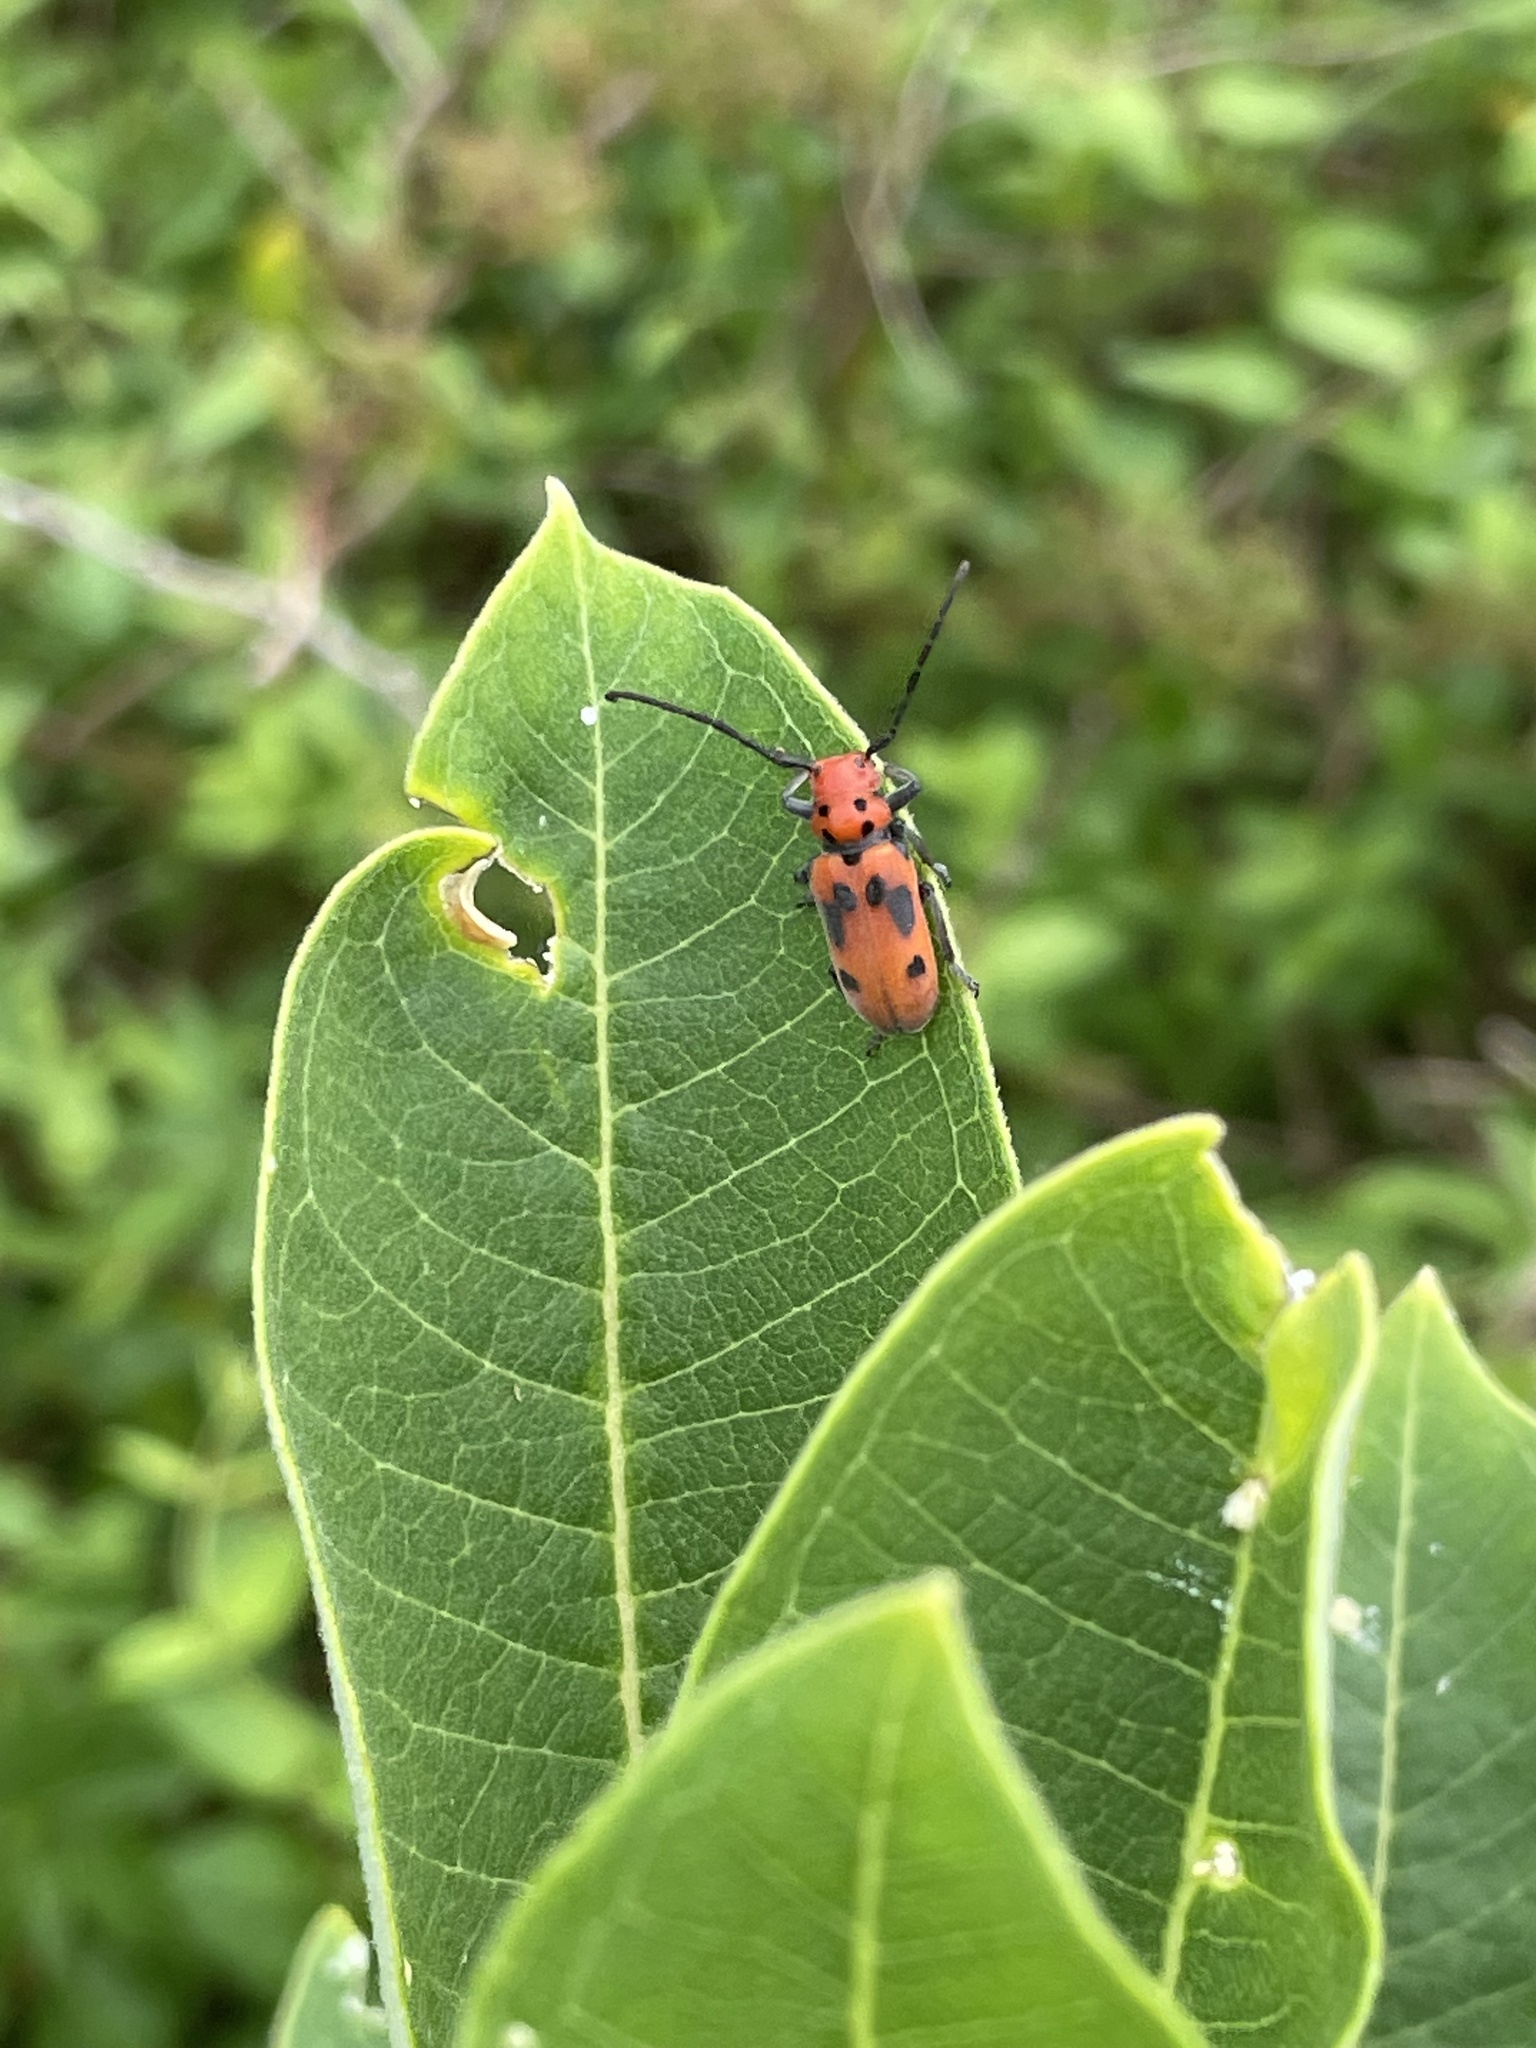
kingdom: Animalia
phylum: Arthropoda
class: Insecta
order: Coleoptera
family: Cerambycidae
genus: Tetraopes
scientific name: Tetraopes tetrophthalmus
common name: Red milkweed beetle
